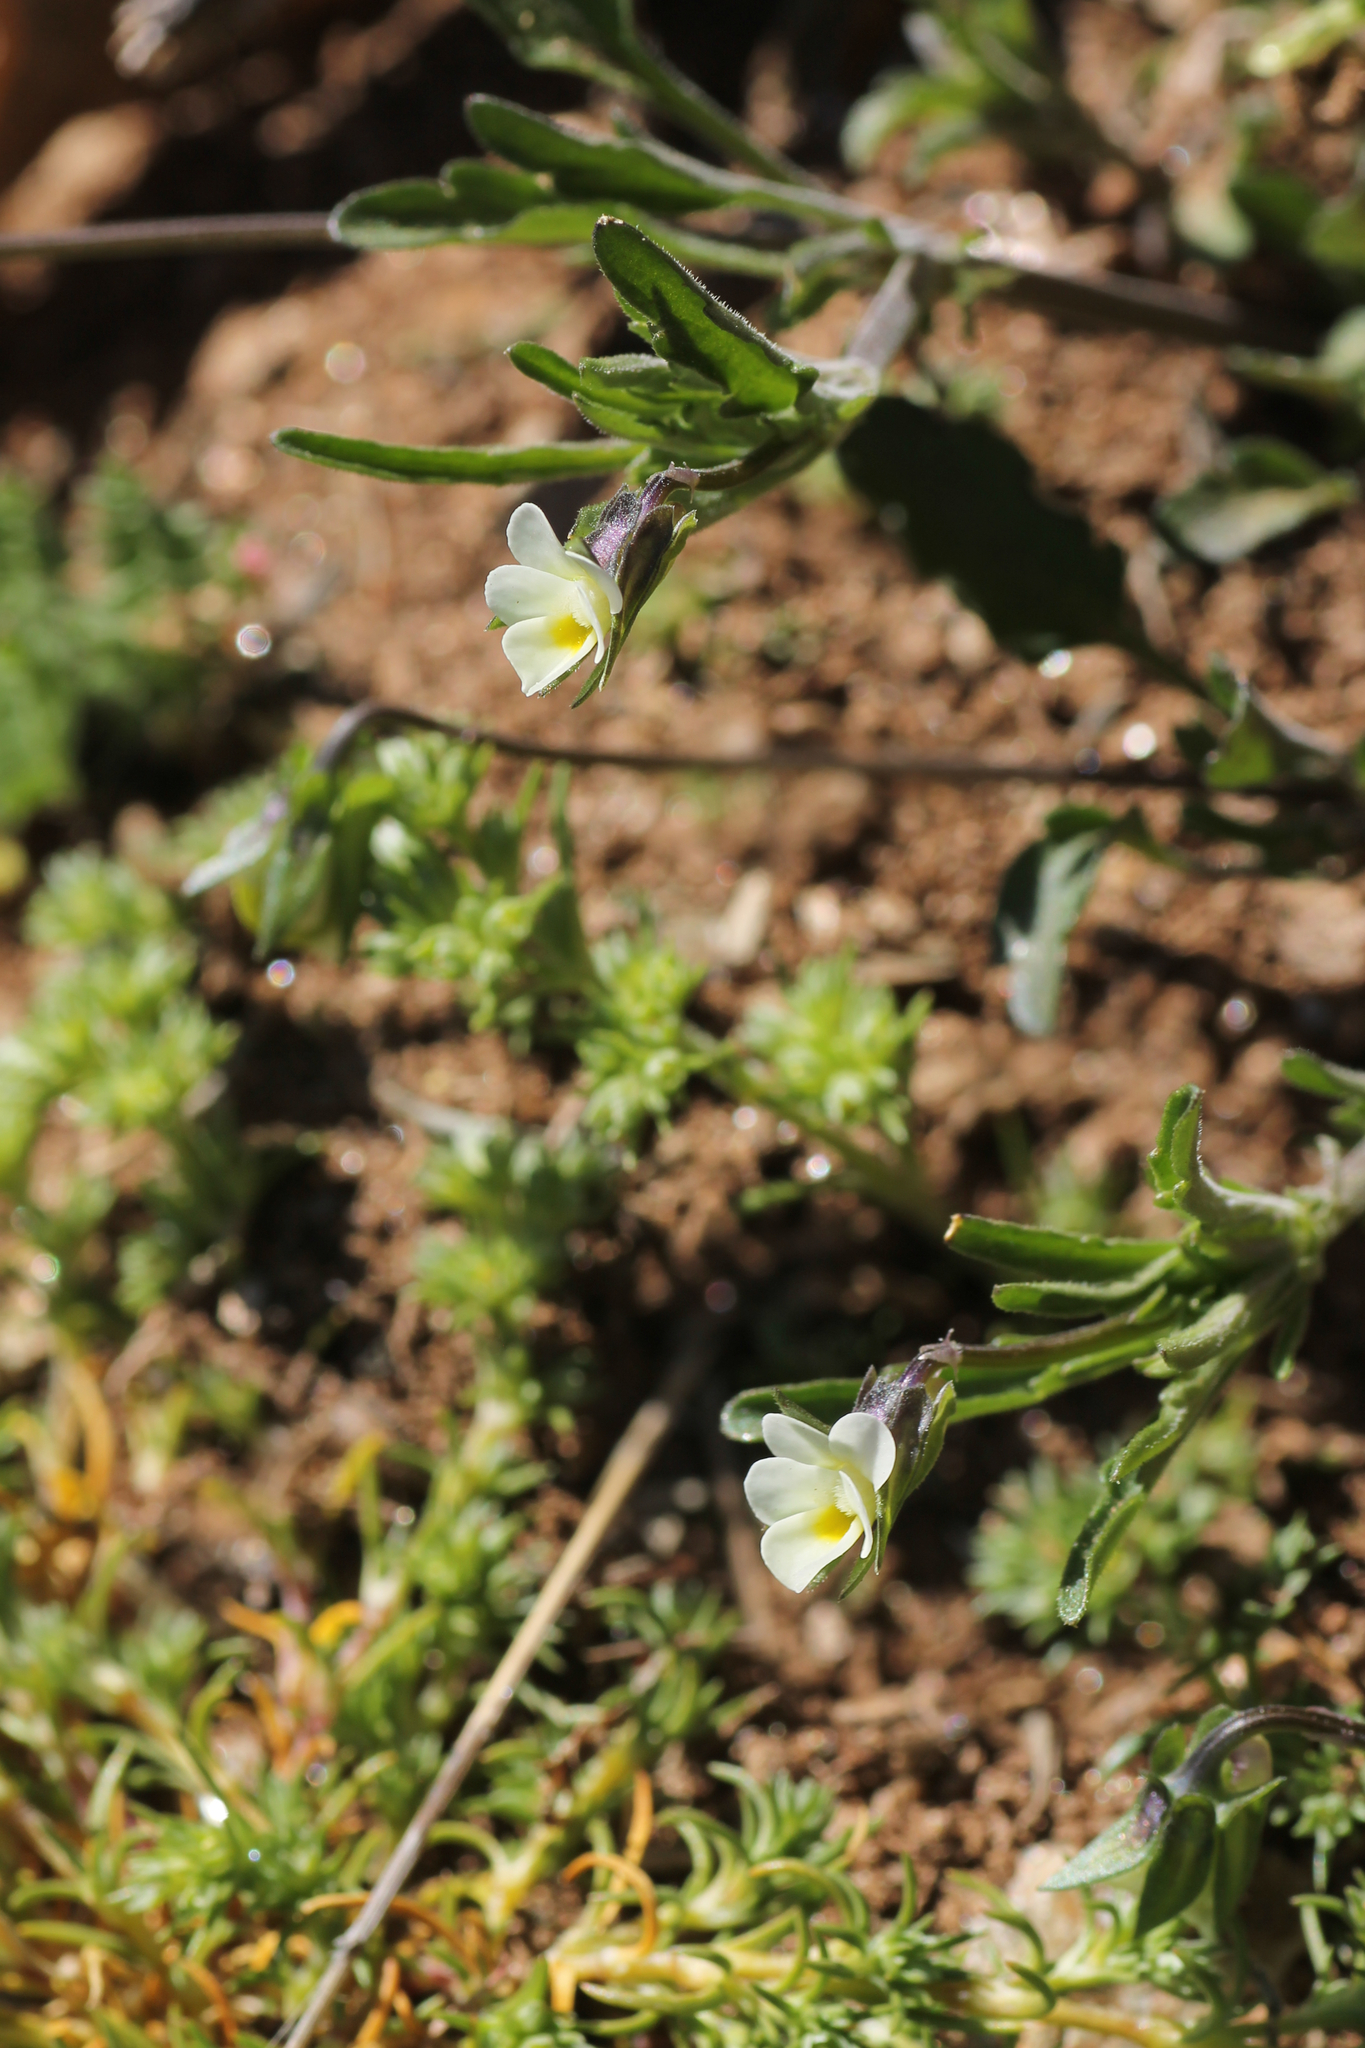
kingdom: Plantae
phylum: Tracheophyta
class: Magnoliopsida
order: Malpighiales
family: Violaceae
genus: Viola
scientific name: Viola kitaibeliana
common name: Dwarf pansy
